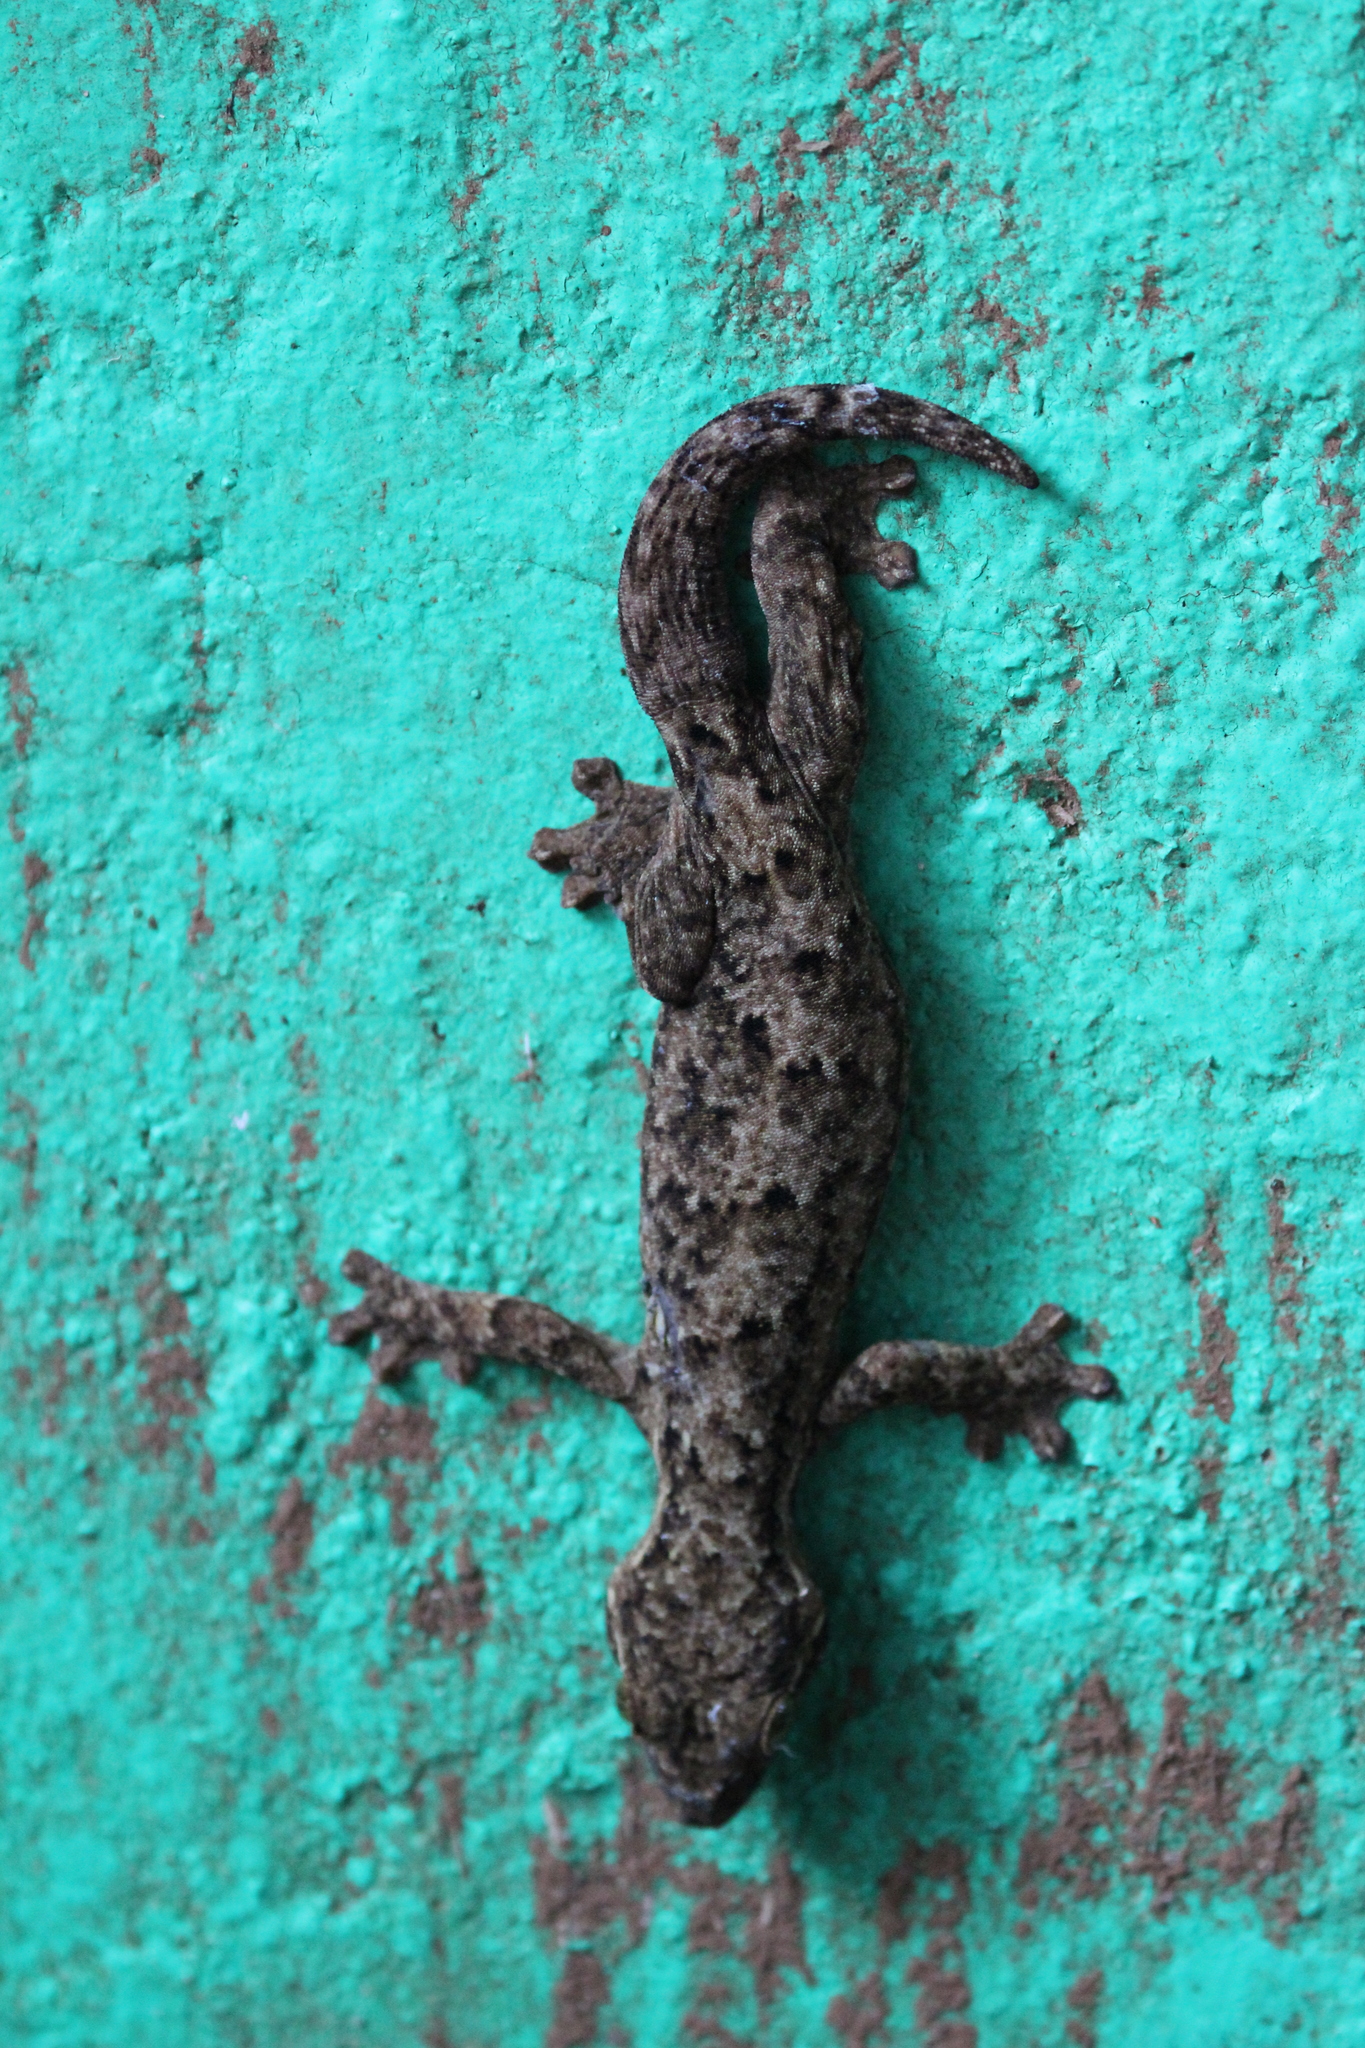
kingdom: Animalia
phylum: Chordata
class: Squamata
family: Phyllodactylidae
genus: Thecadactylus
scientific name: Thecadactylus rapicauda
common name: Turnip-tailed gecko
